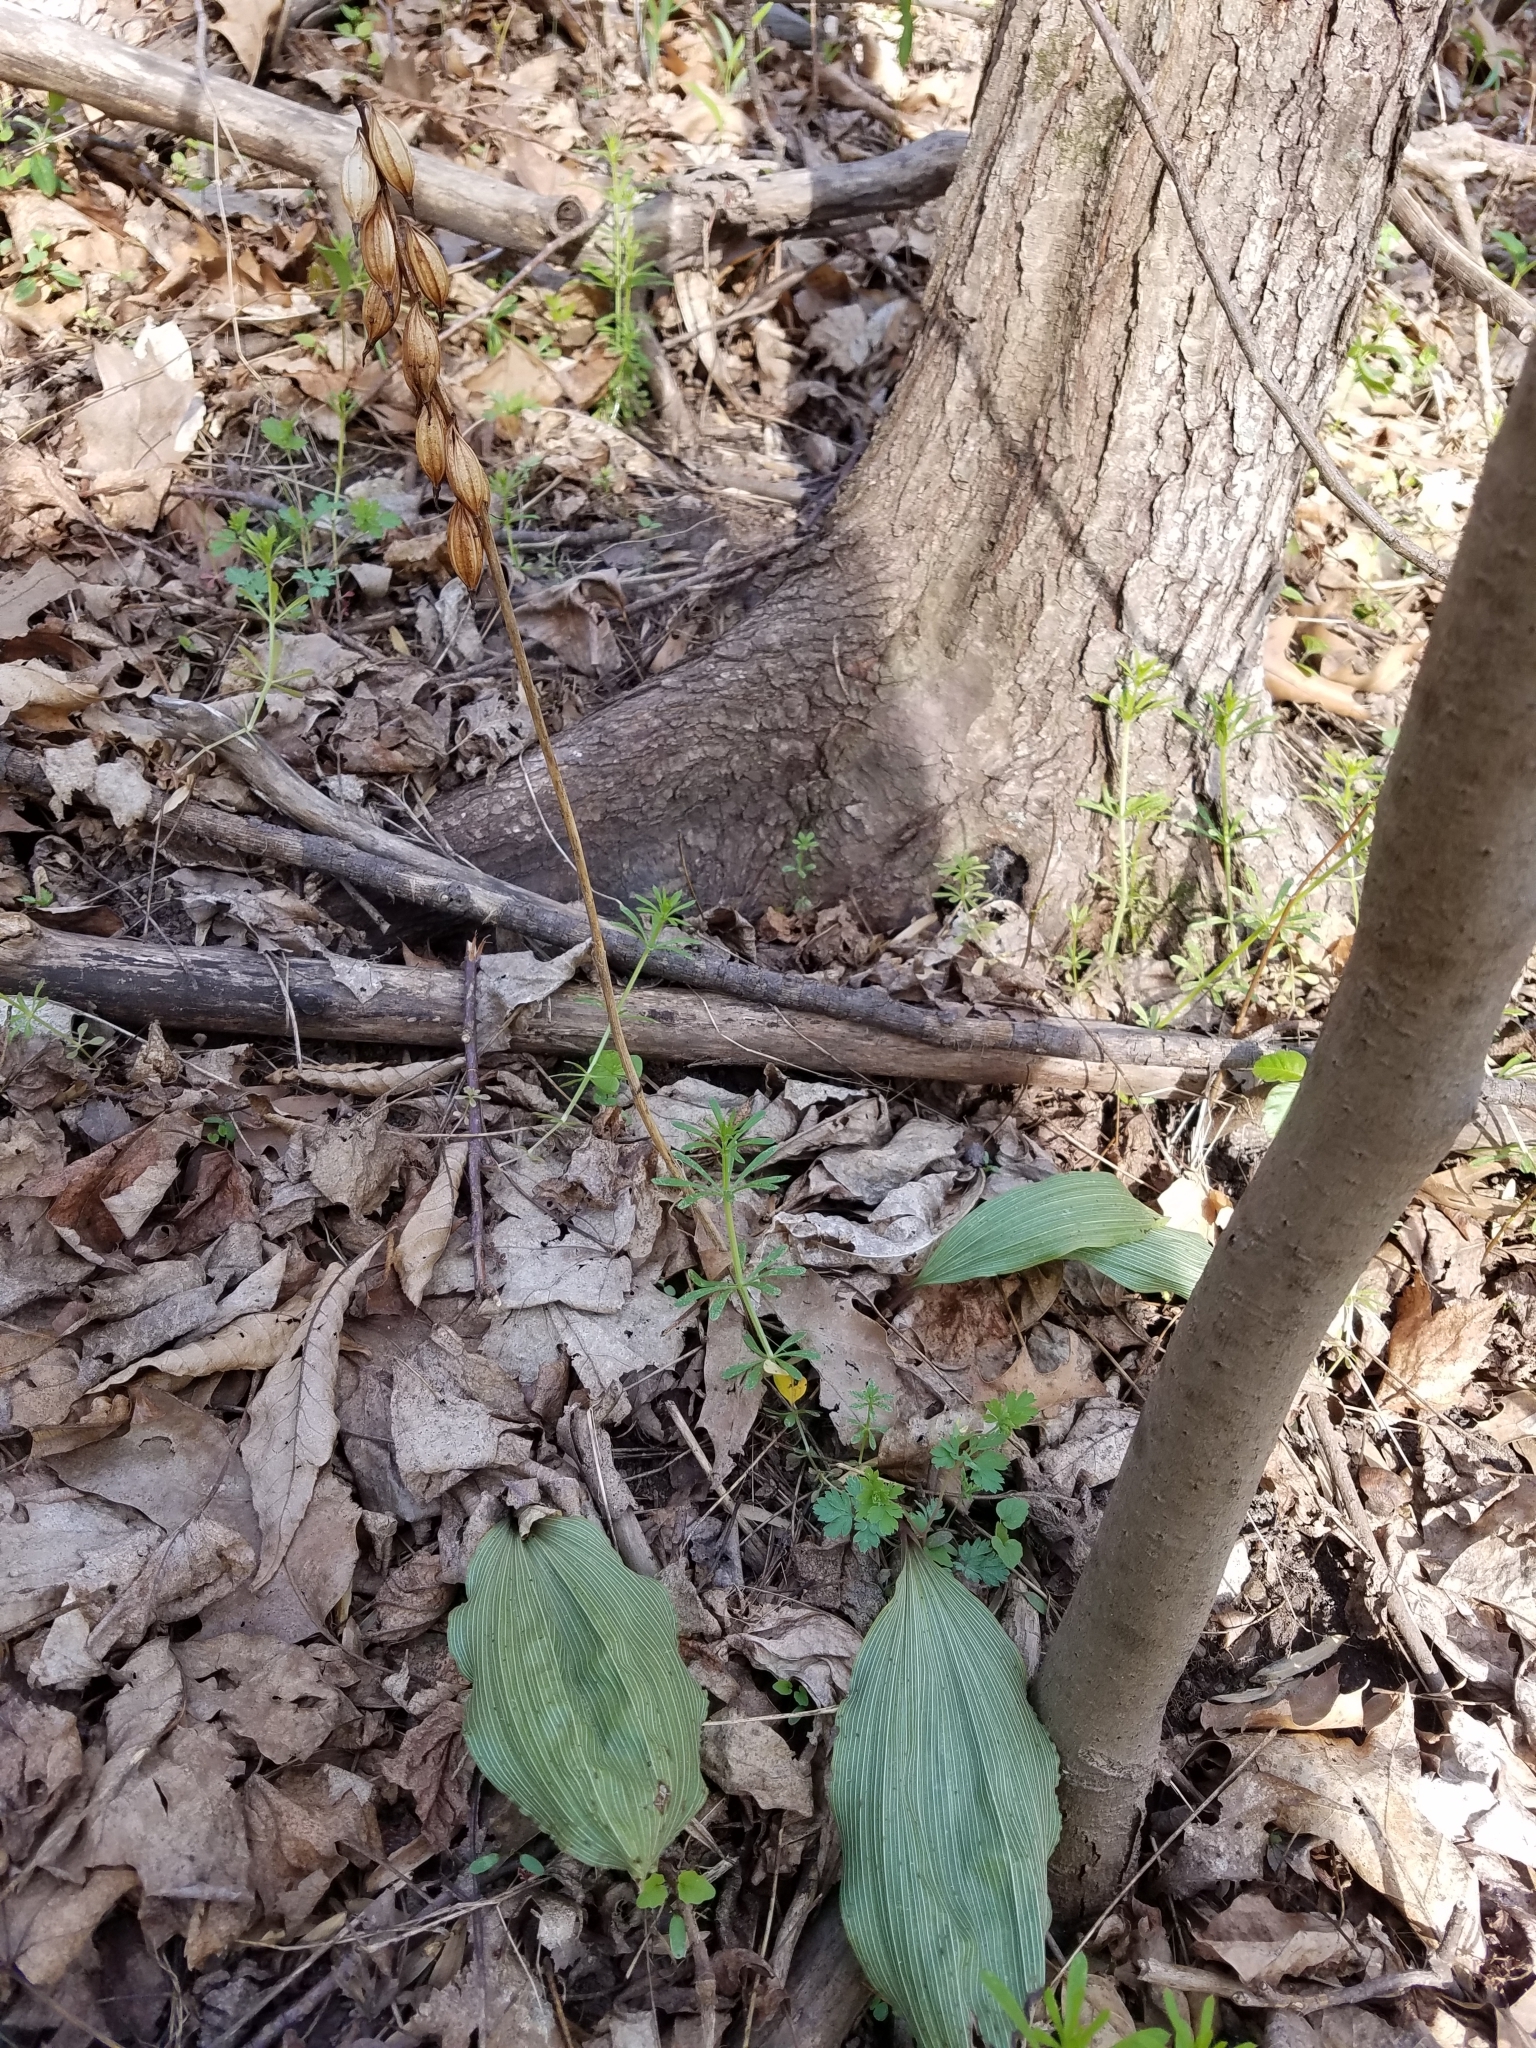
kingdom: Plantae
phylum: Tracheophyta
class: Liliopsida
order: Asparagales
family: Orchidaceae
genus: Aplectrum
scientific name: Aplectrum hyemale
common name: Adam-and-eve
